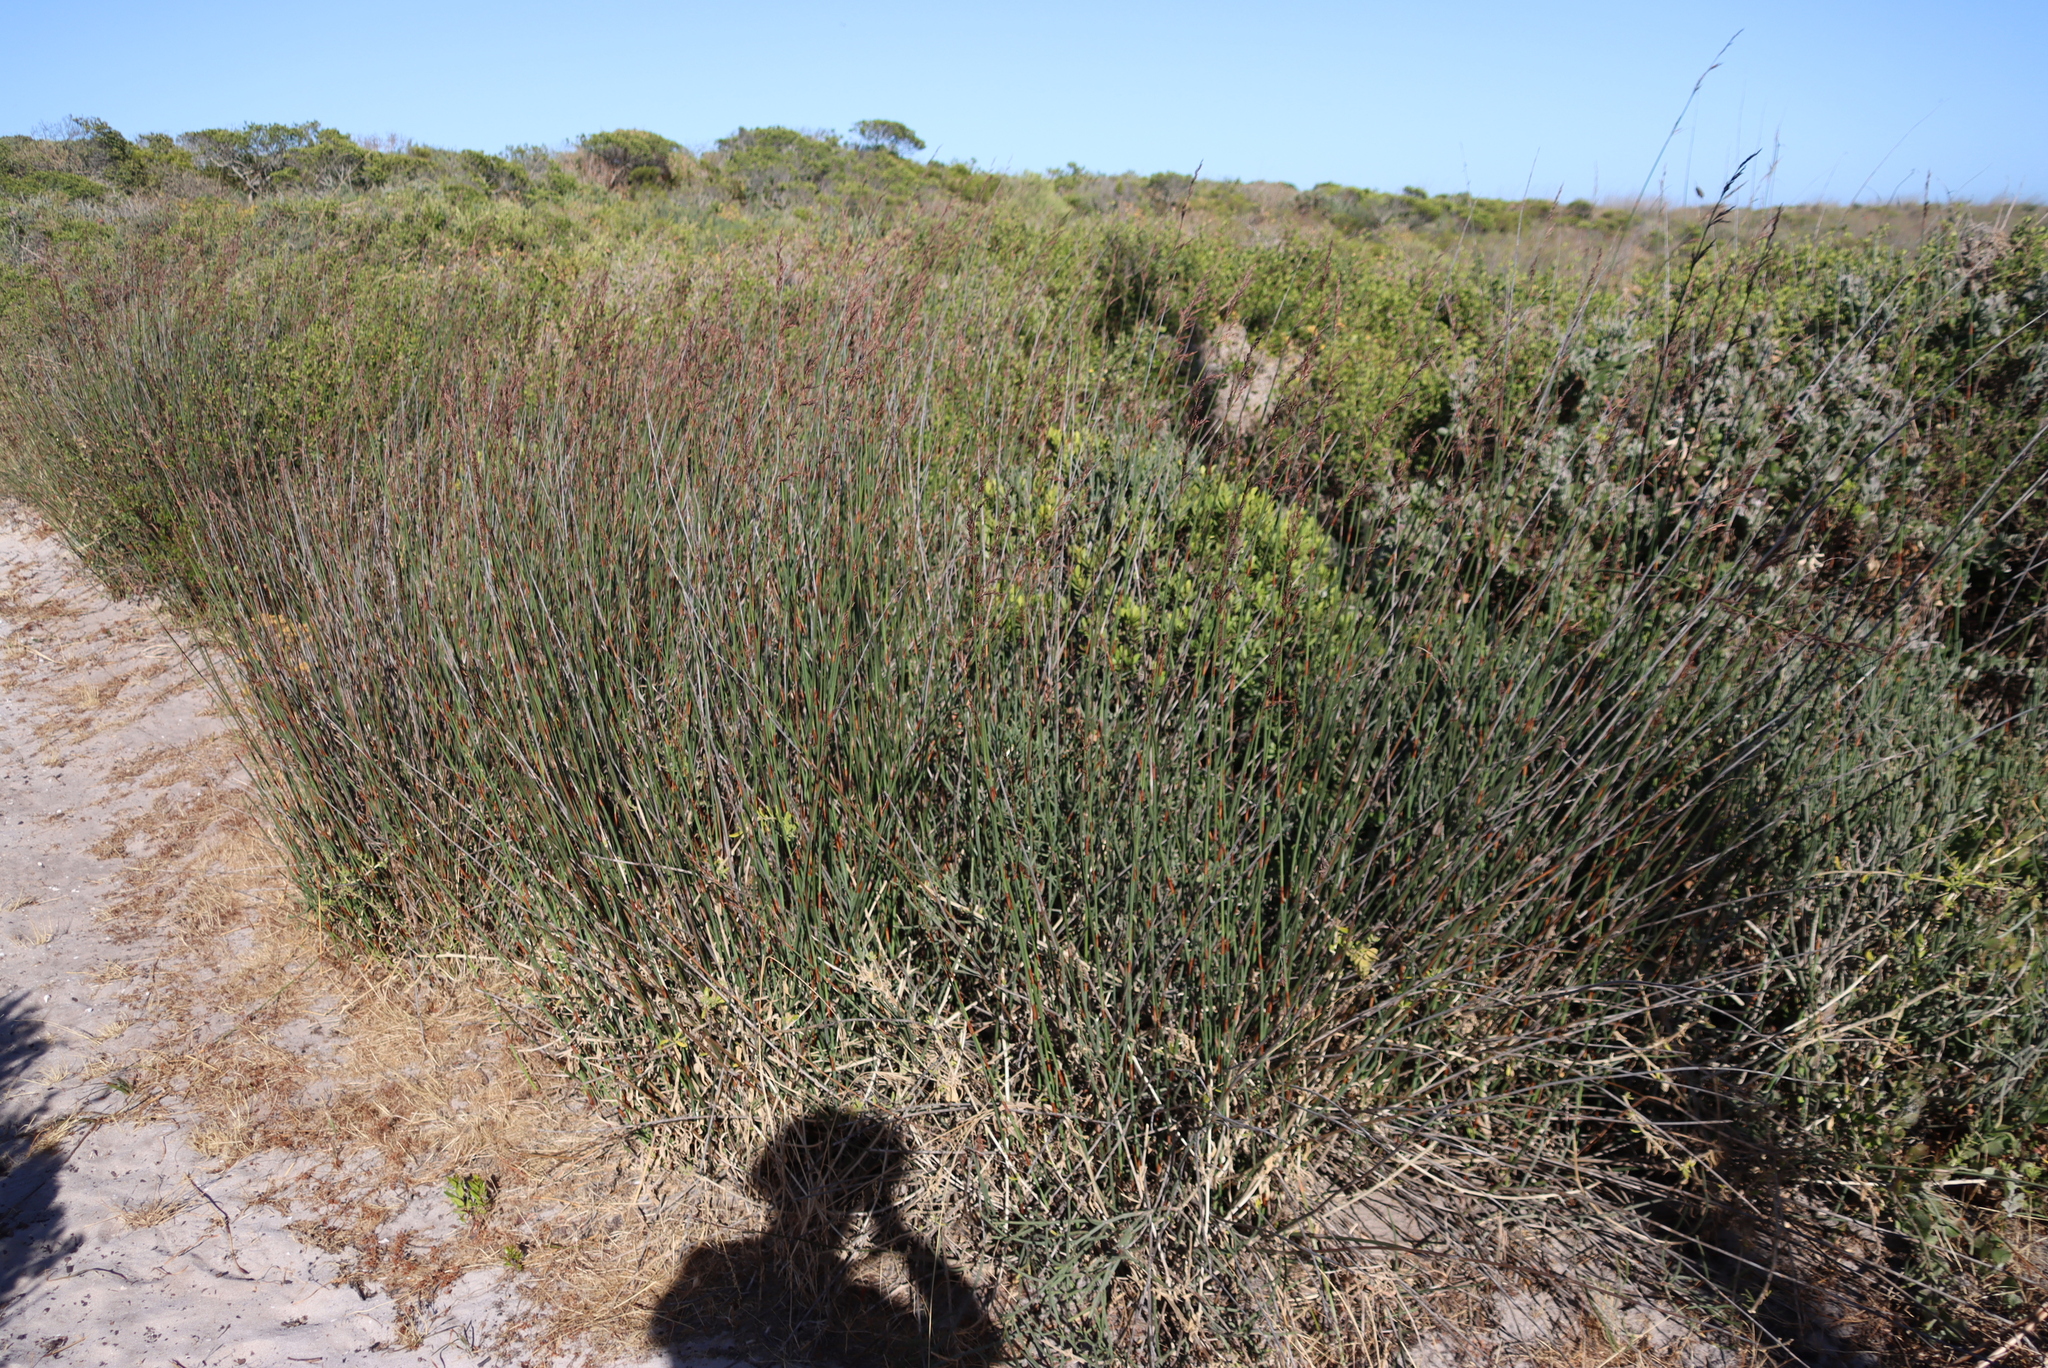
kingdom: Plantae
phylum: Tracheophyta
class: Liliopsida
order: Poales
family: Restionaceae
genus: Thamnochortus
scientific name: Thamnochortus spicigerus
